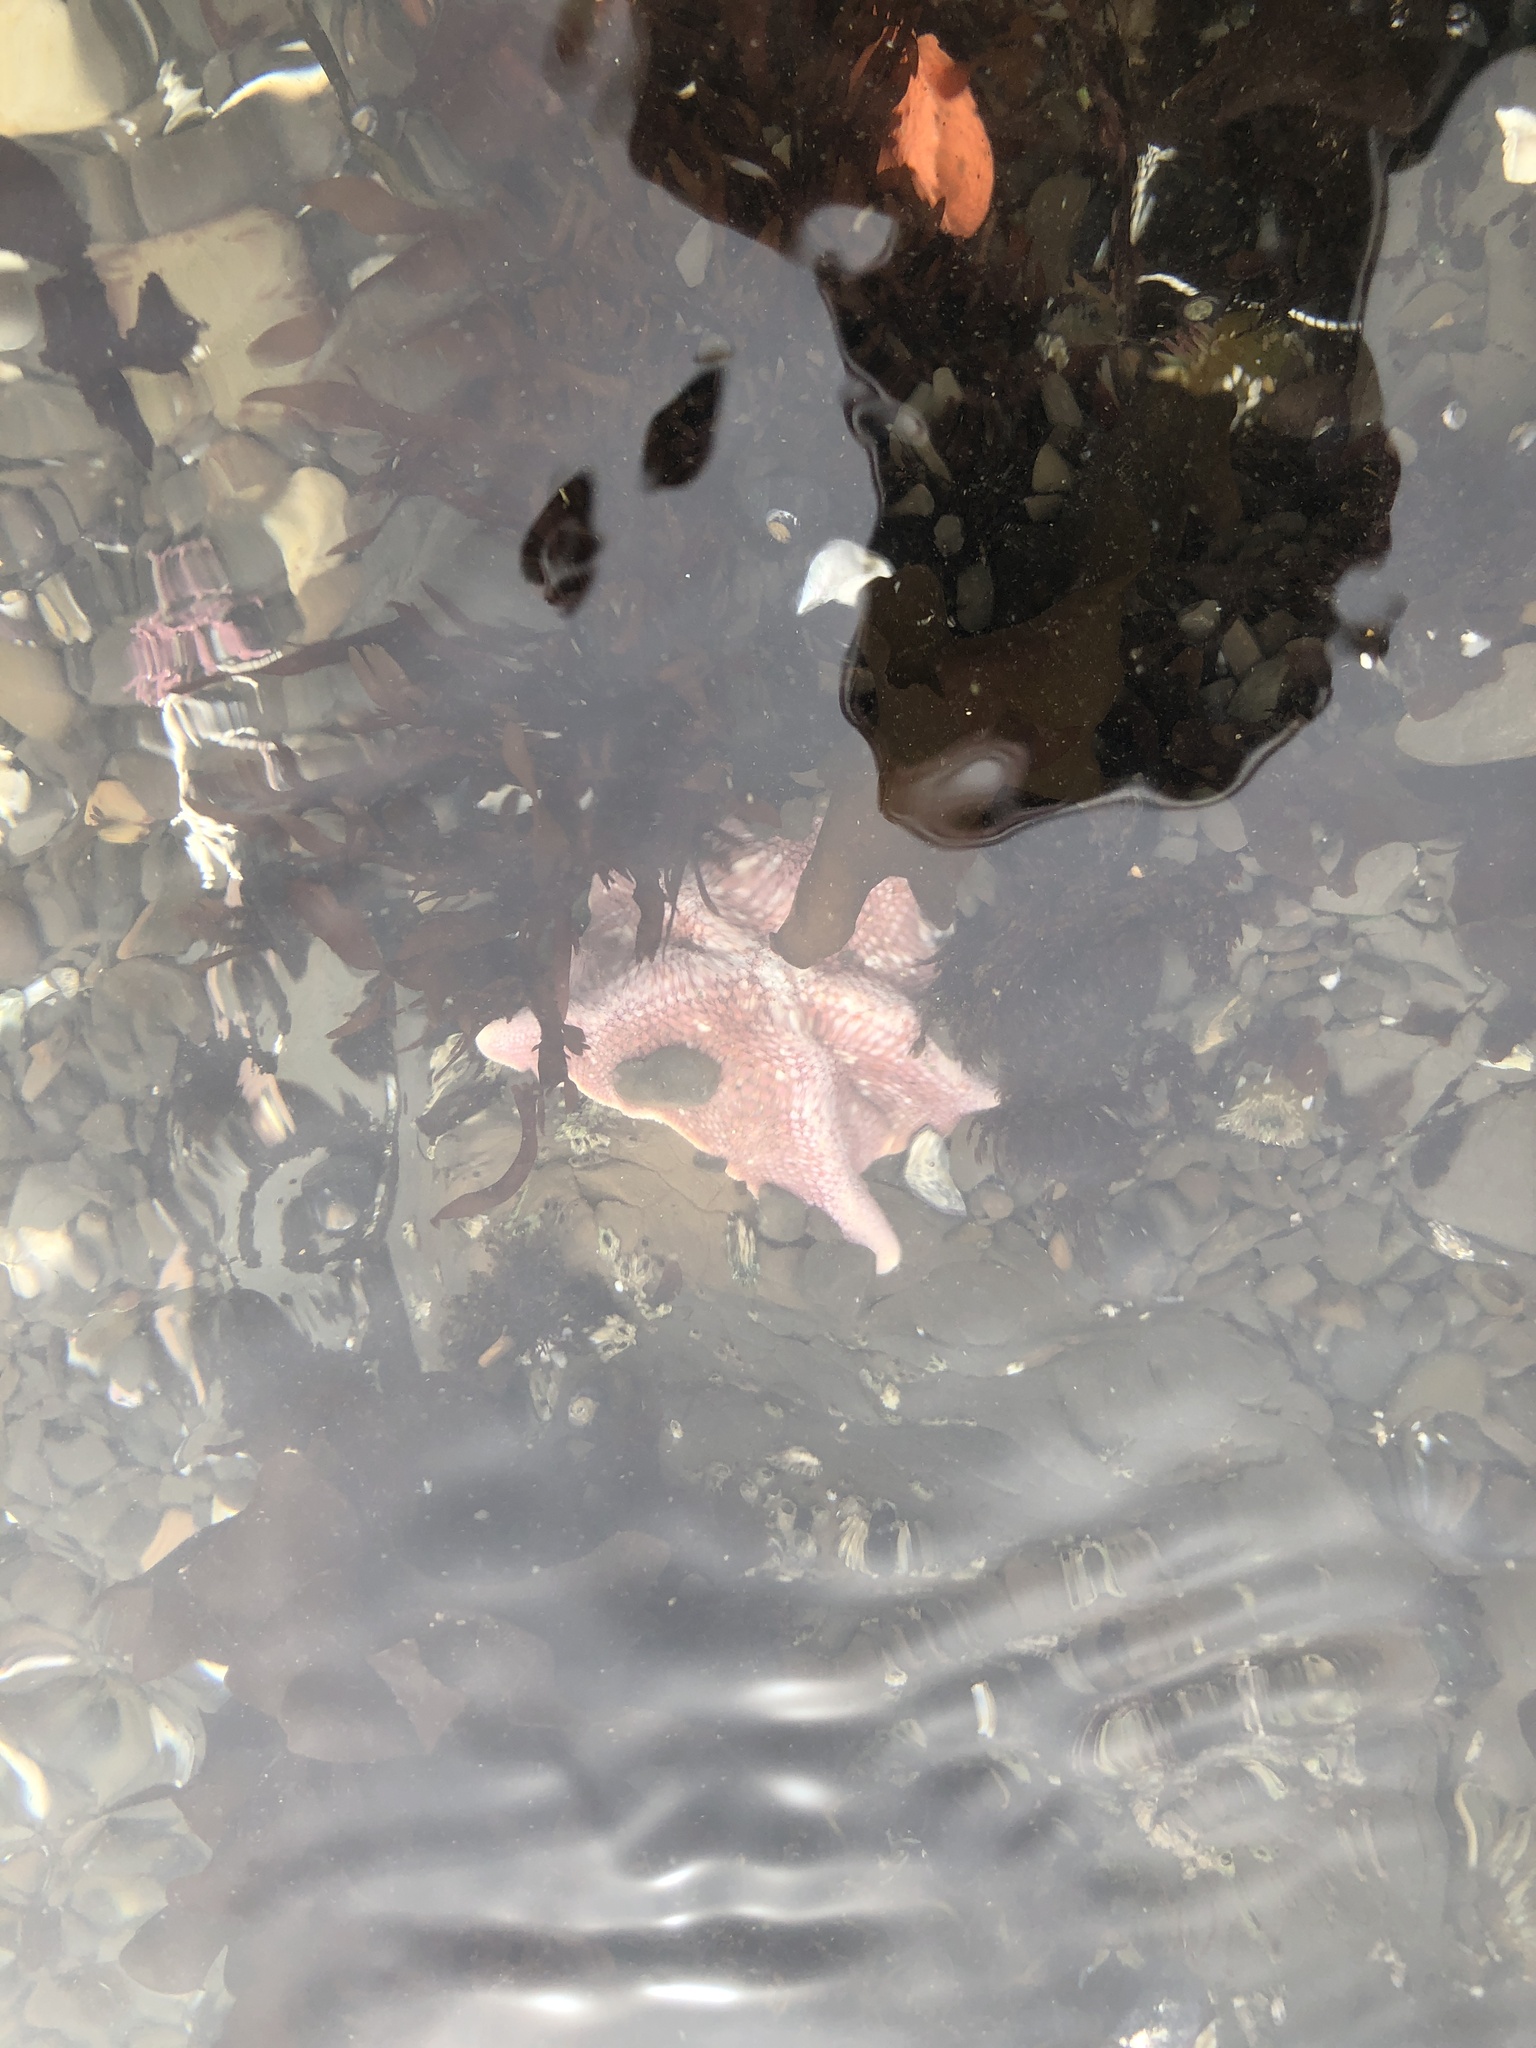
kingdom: Animalia
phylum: Echinodermata
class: Asteroidea
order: Valvatida
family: Asterinidae
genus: Patiria
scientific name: Patiria miniata
